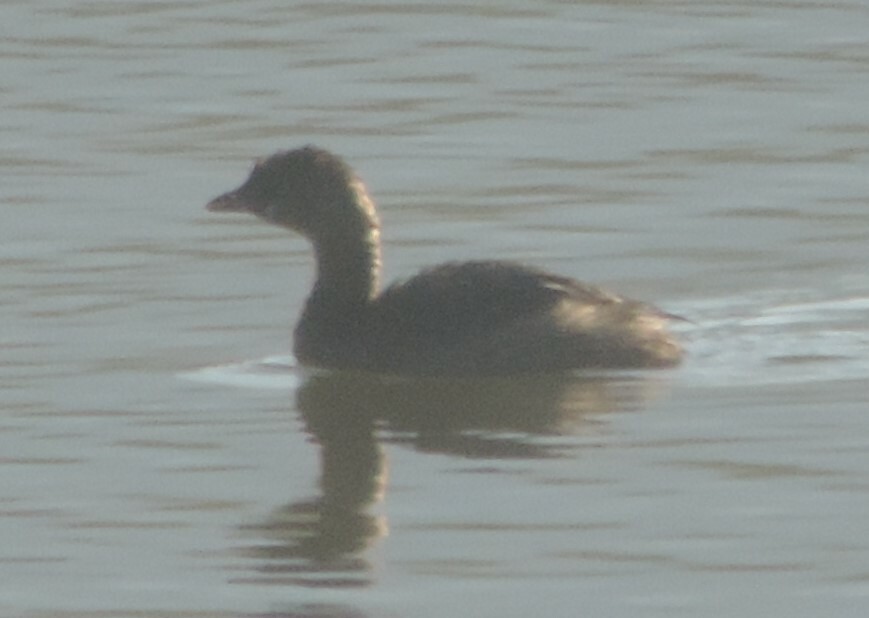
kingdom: Animalia
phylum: Chordata
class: Aves
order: Podicipediformes
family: Podicipedidae
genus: Podilymbus
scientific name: Podilymbus podiceps
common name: Pied-billed grebe
